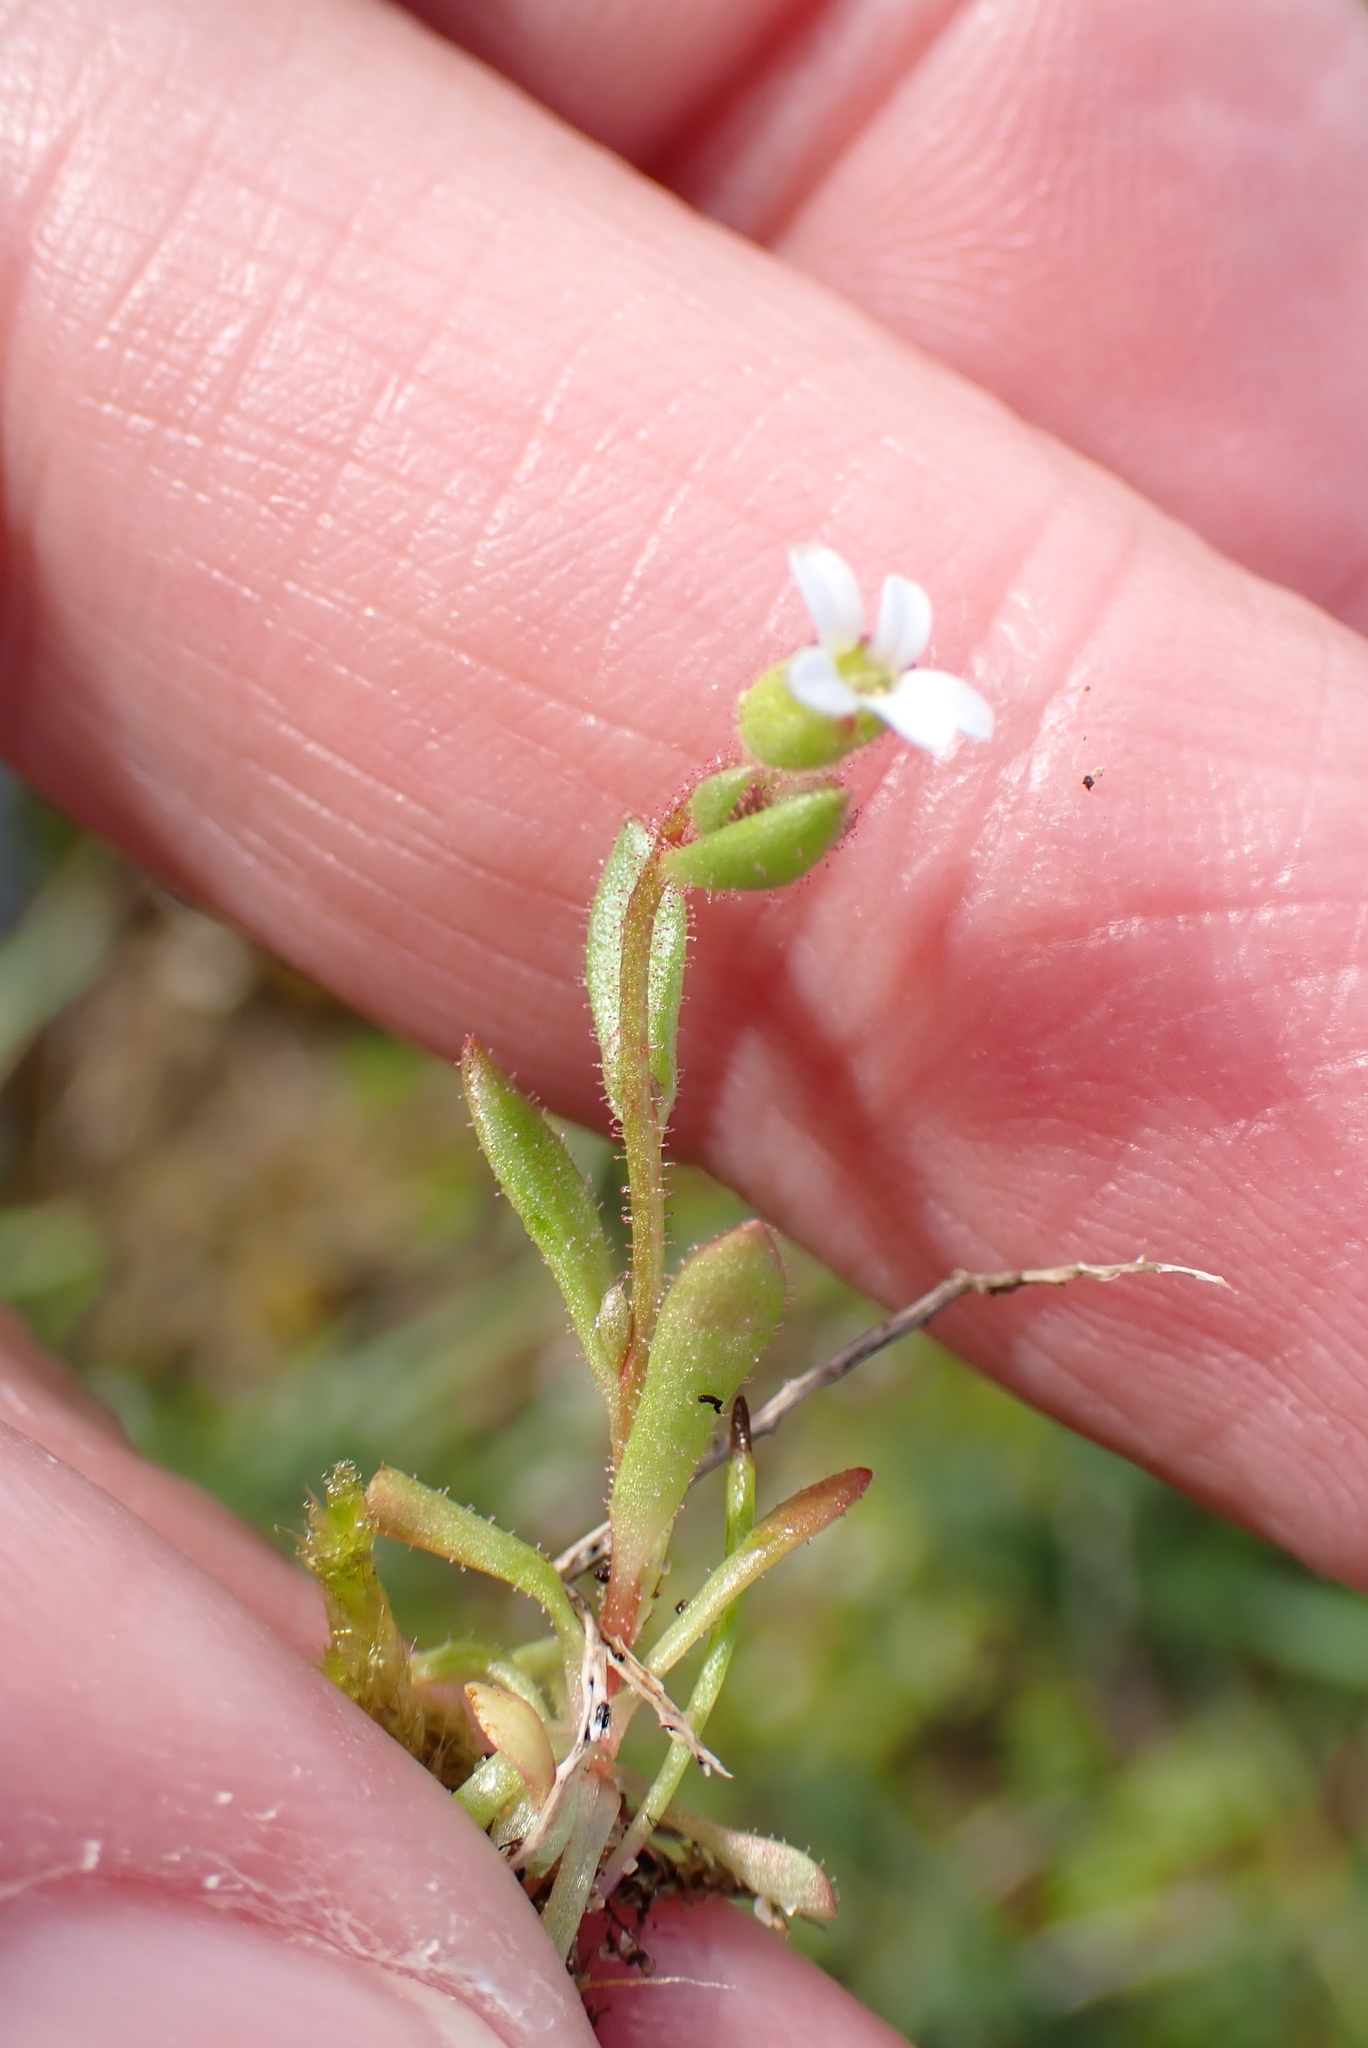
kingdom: Plantae
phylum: Tracheophyta
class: Magnoliopsida
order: Saxifragales
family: Saxifragaceae
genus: Saxifraga
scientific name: Saxifraga tridactylites
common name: Rue-leaved saxifrage
